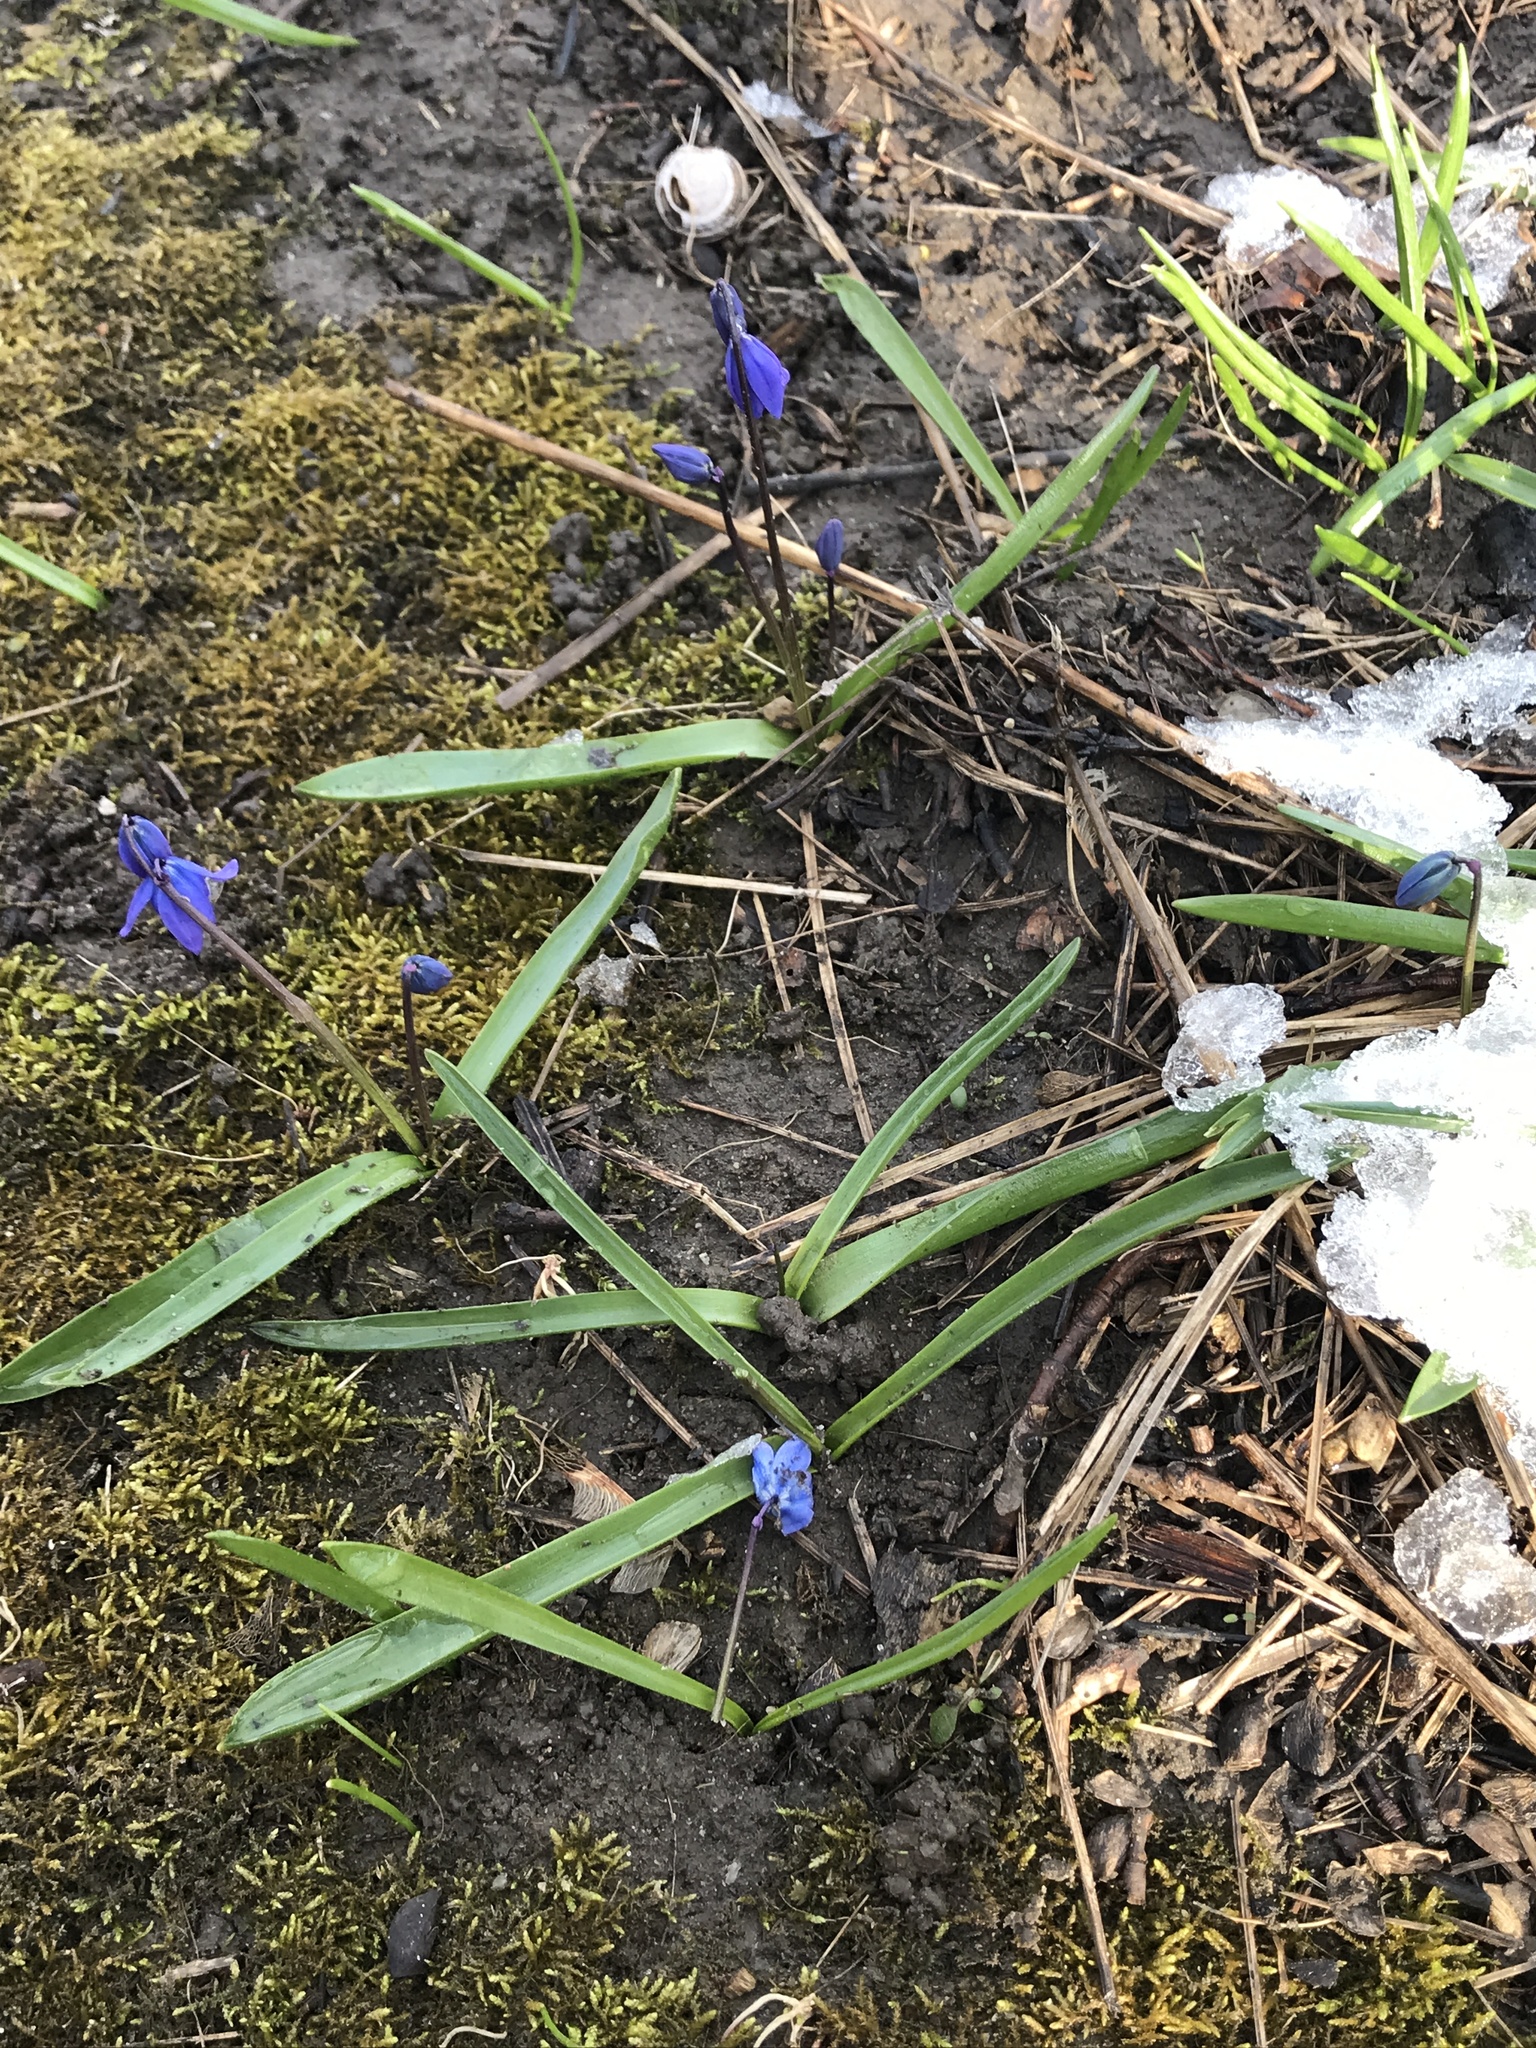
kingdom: Plantae
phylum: Tracheophyta
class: Liliopsida
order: Asparagales
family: Asparagaceae
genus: Scilla
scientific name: Scilla siberica
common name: Siberian squill
